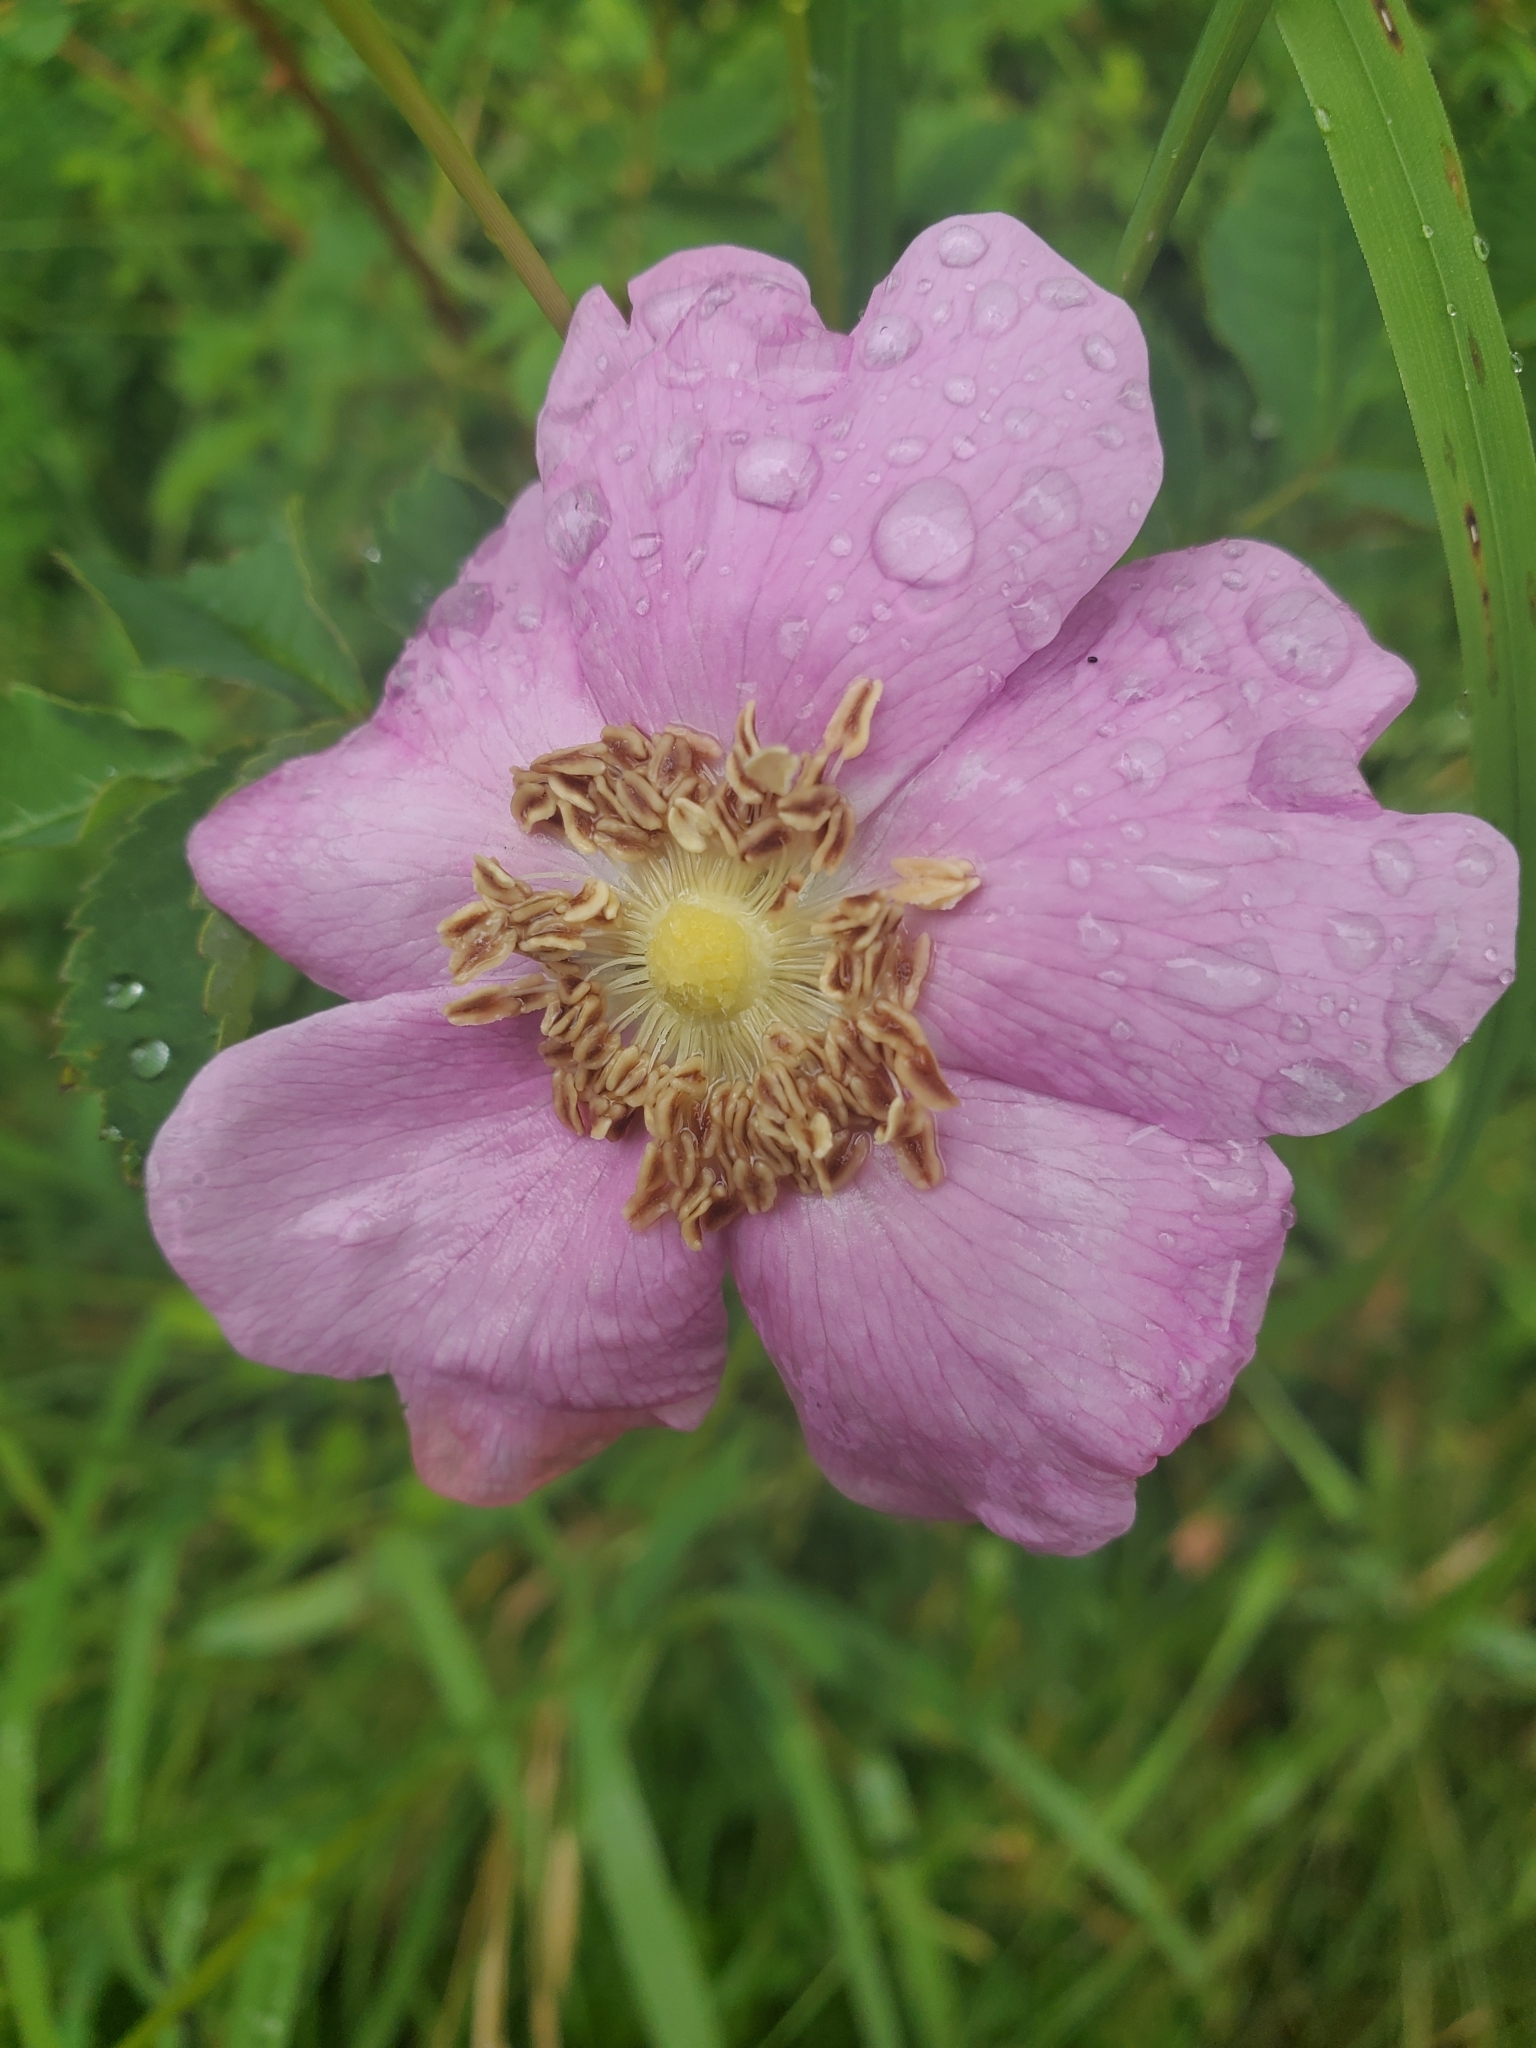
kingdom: Plantae
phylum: Tracheophyta
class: Magnoliopsida
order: Rosales
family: Rosaceae
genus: Rosa
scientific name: Rosa nutkana
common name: Nootka rose
